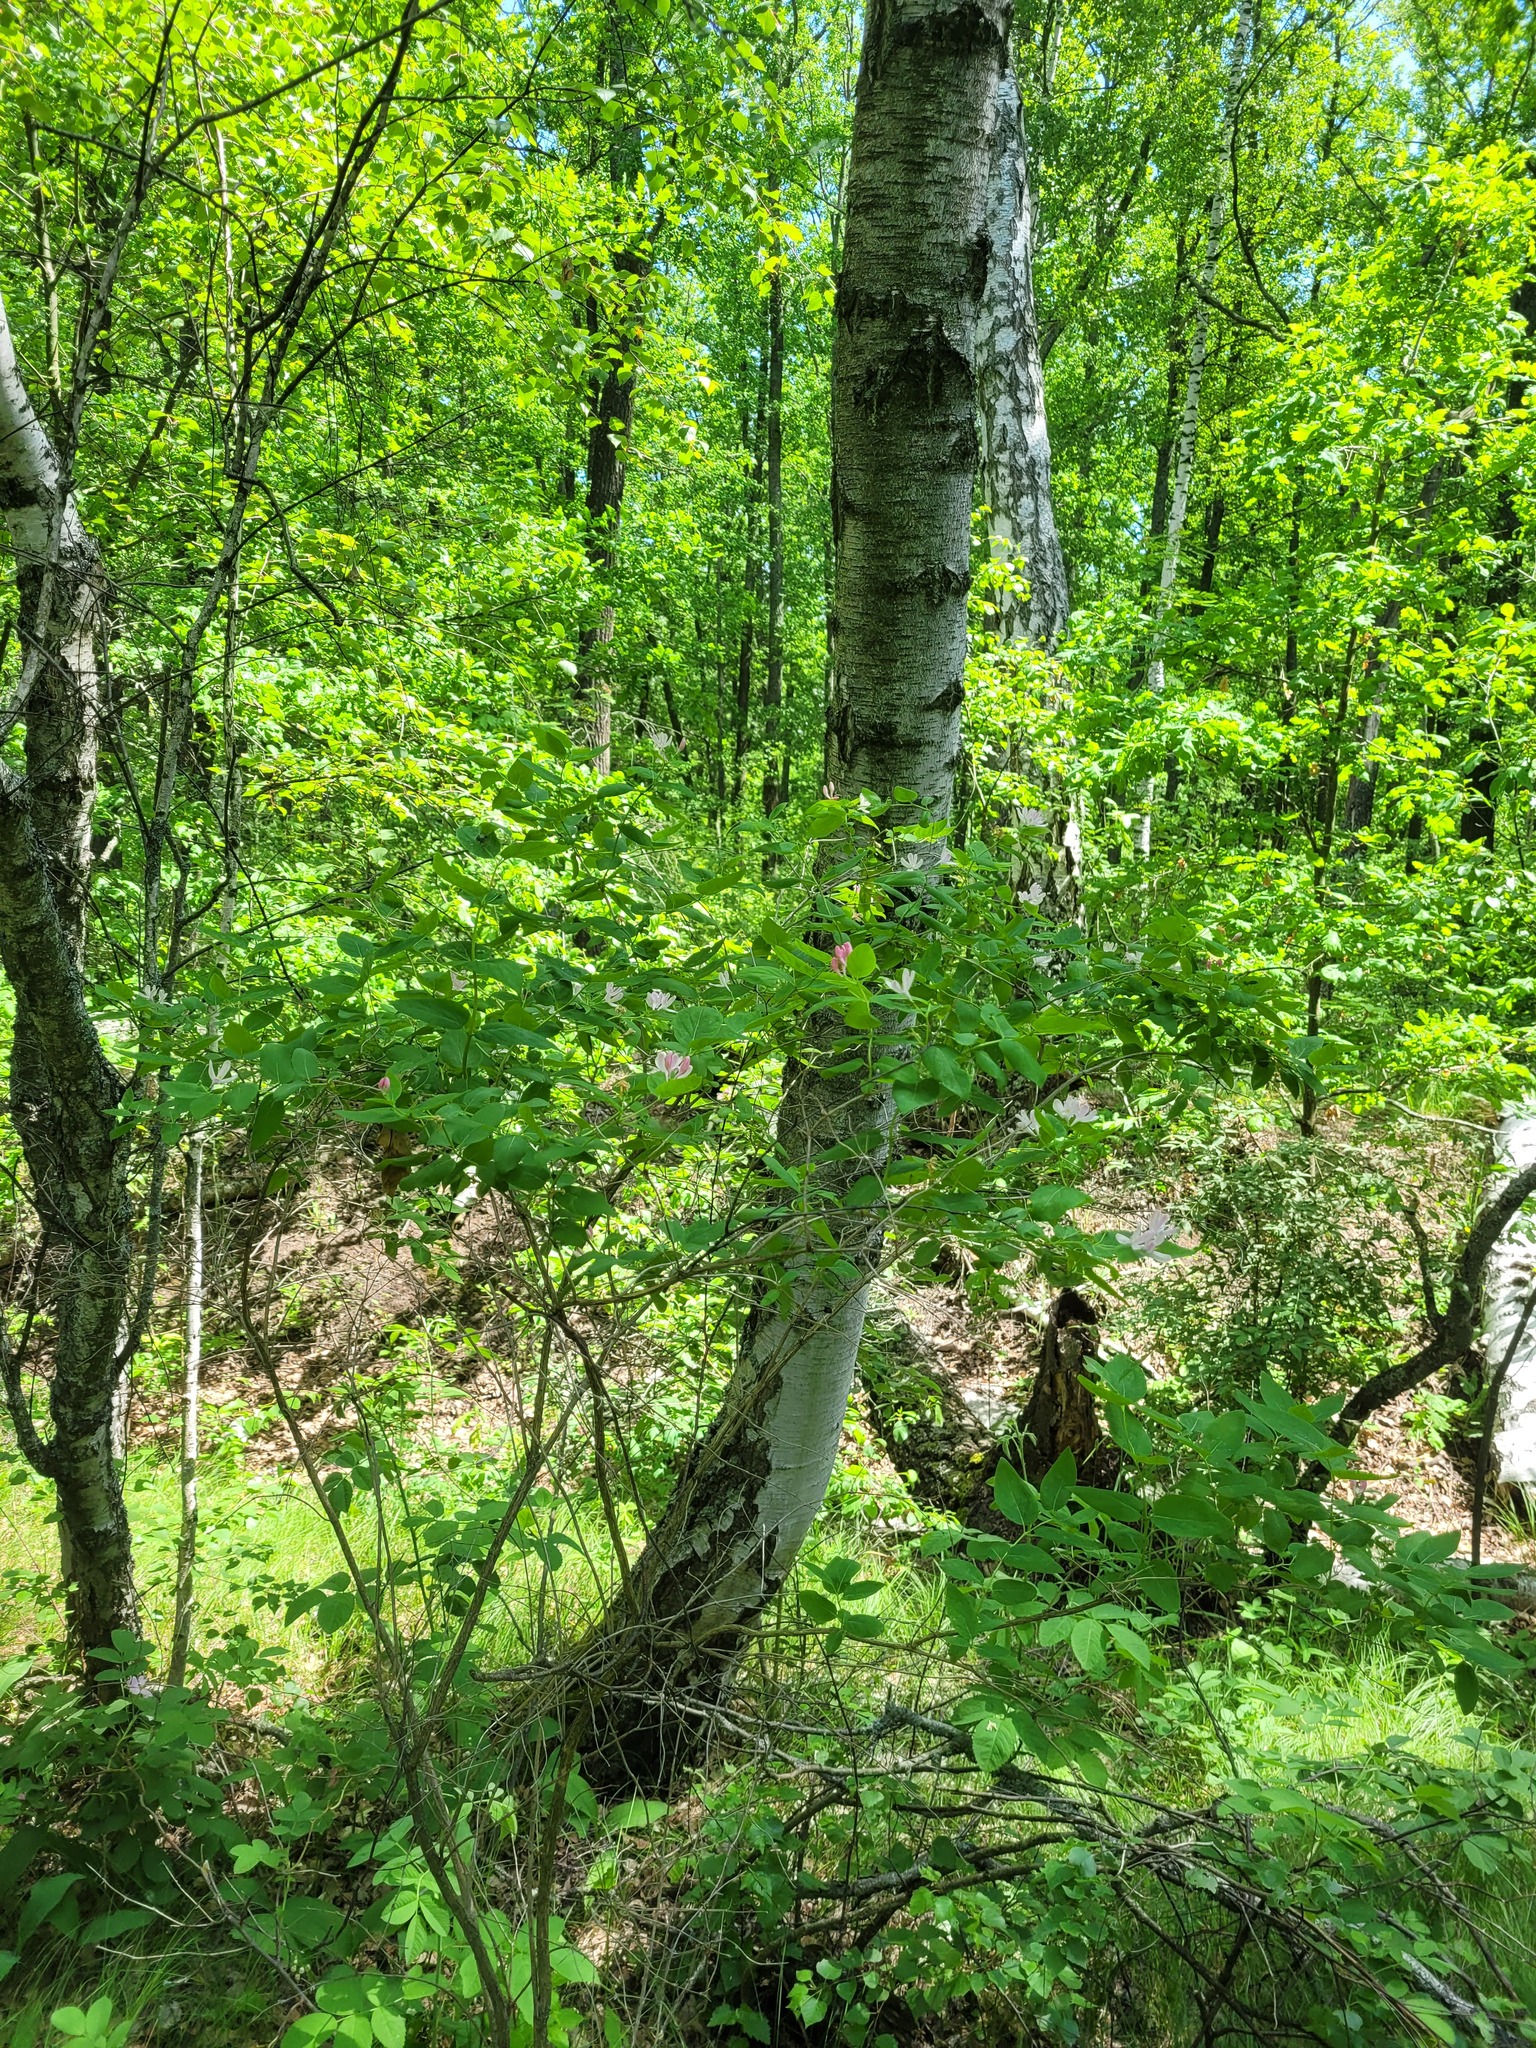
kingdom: Plantae
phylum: Tracheophyta
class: Magnoliopsida
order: Dipsacales
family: Caprifoliaceae
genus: Lonicera
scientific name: Lonicera tatarica
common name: Tatarian honeysuckle
